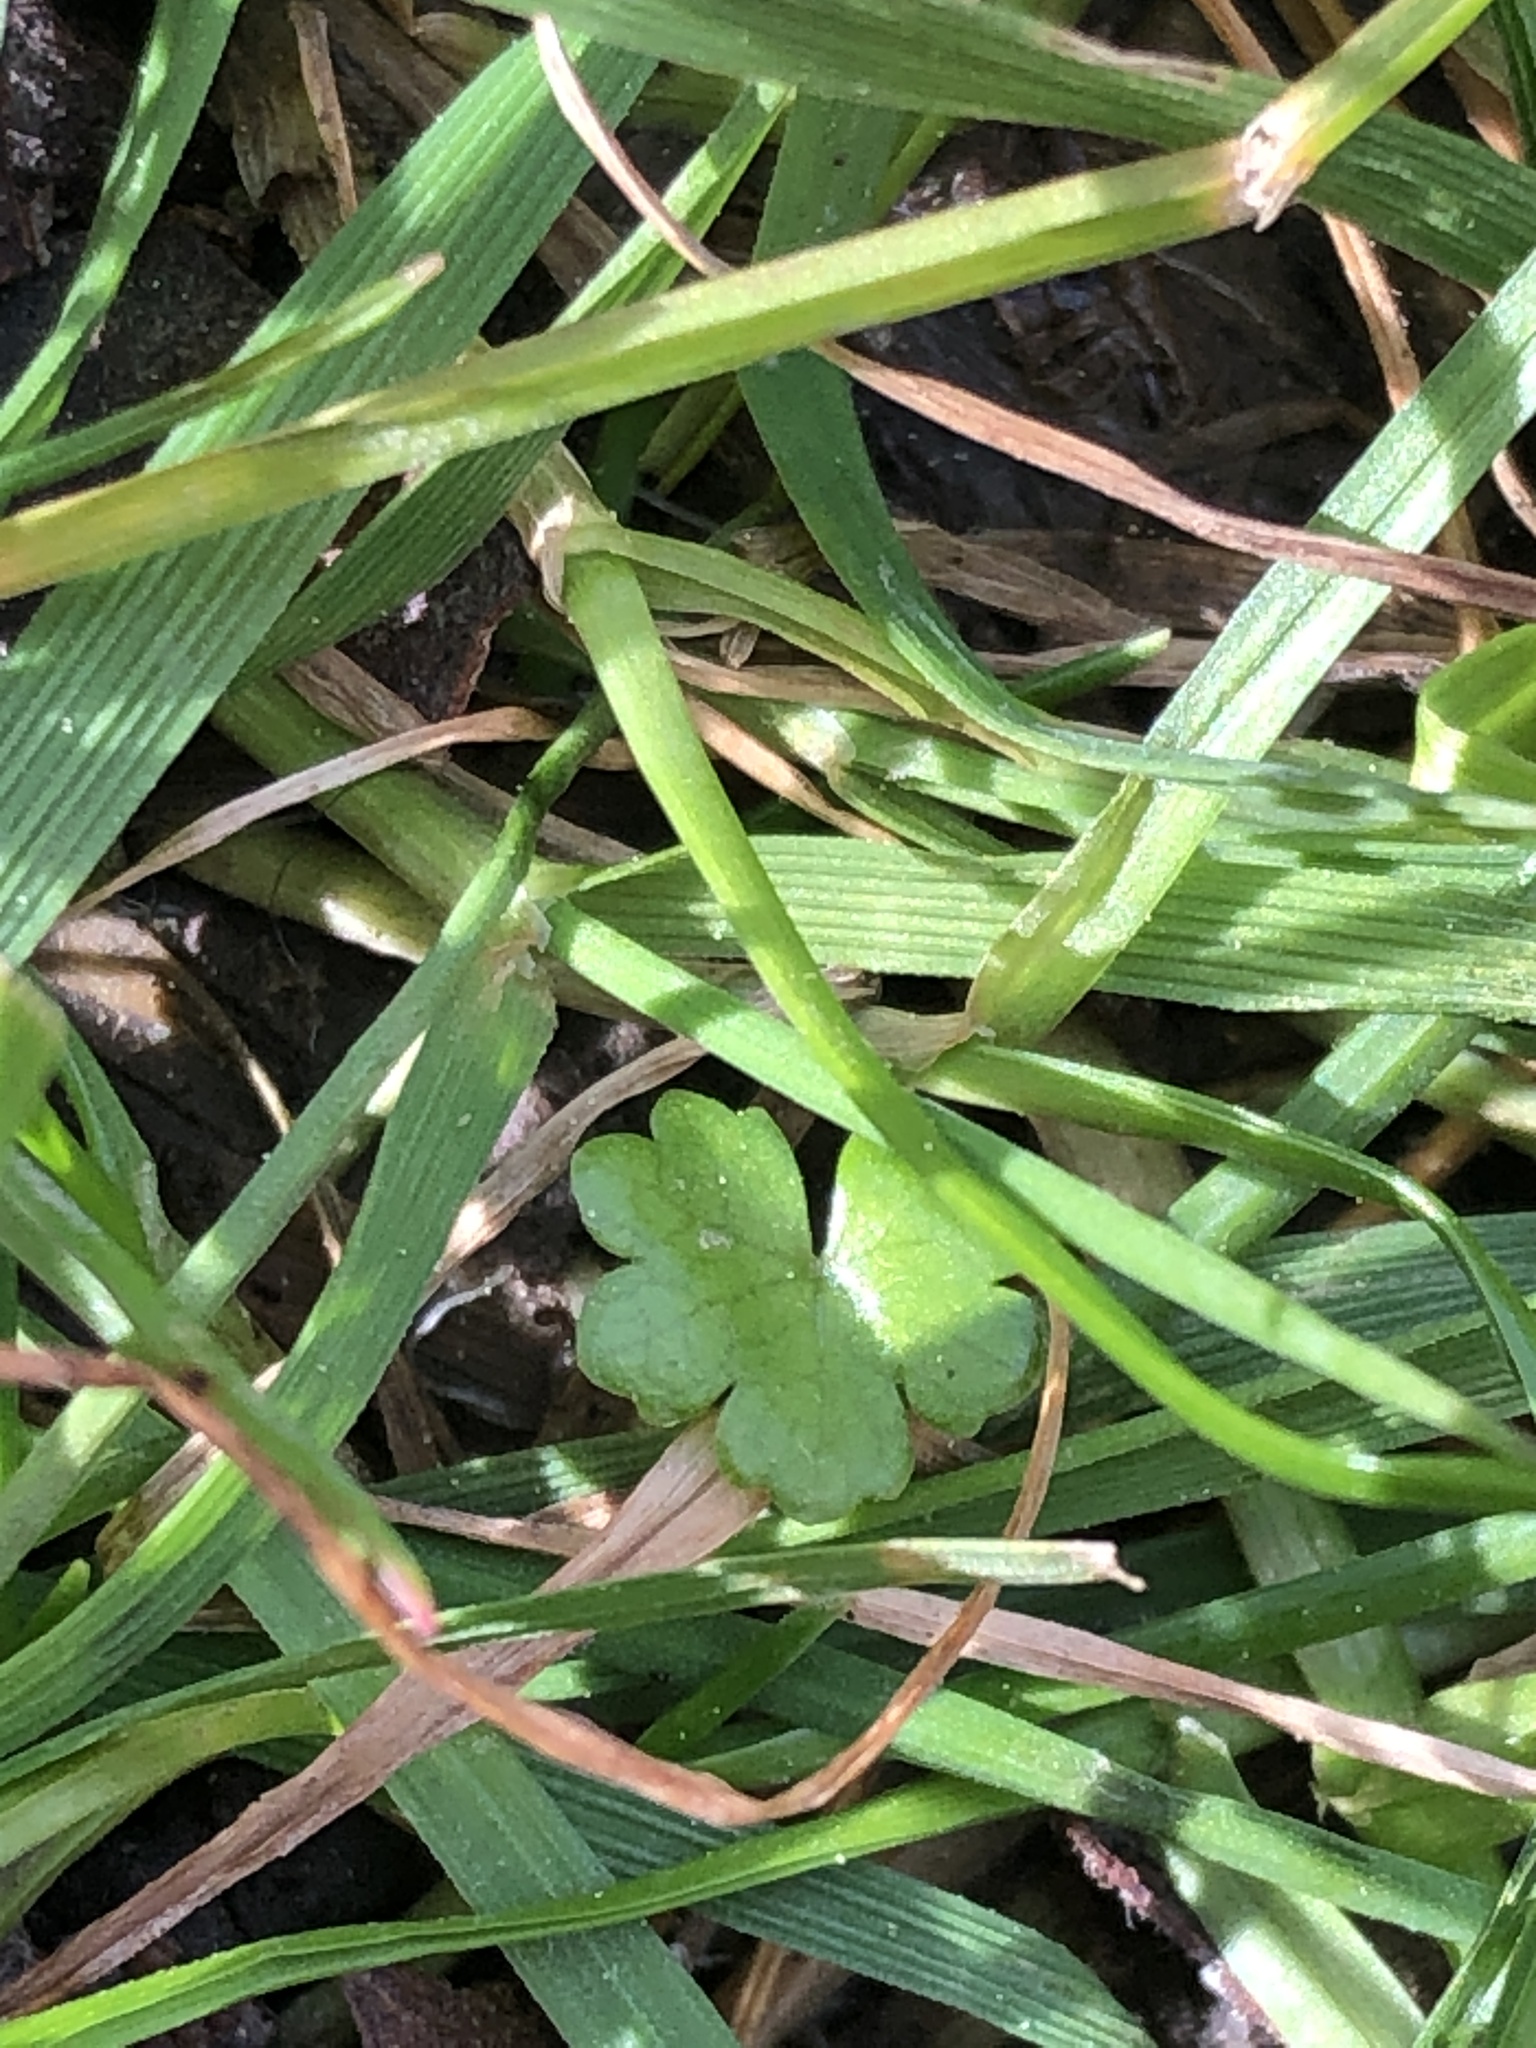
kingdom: Plantae
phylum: Tracheophyta
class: Magnoliopsida
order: Apiales
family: Araliaceae
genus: Hydrocotyle
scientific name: Hydrocotyle heteromeria
